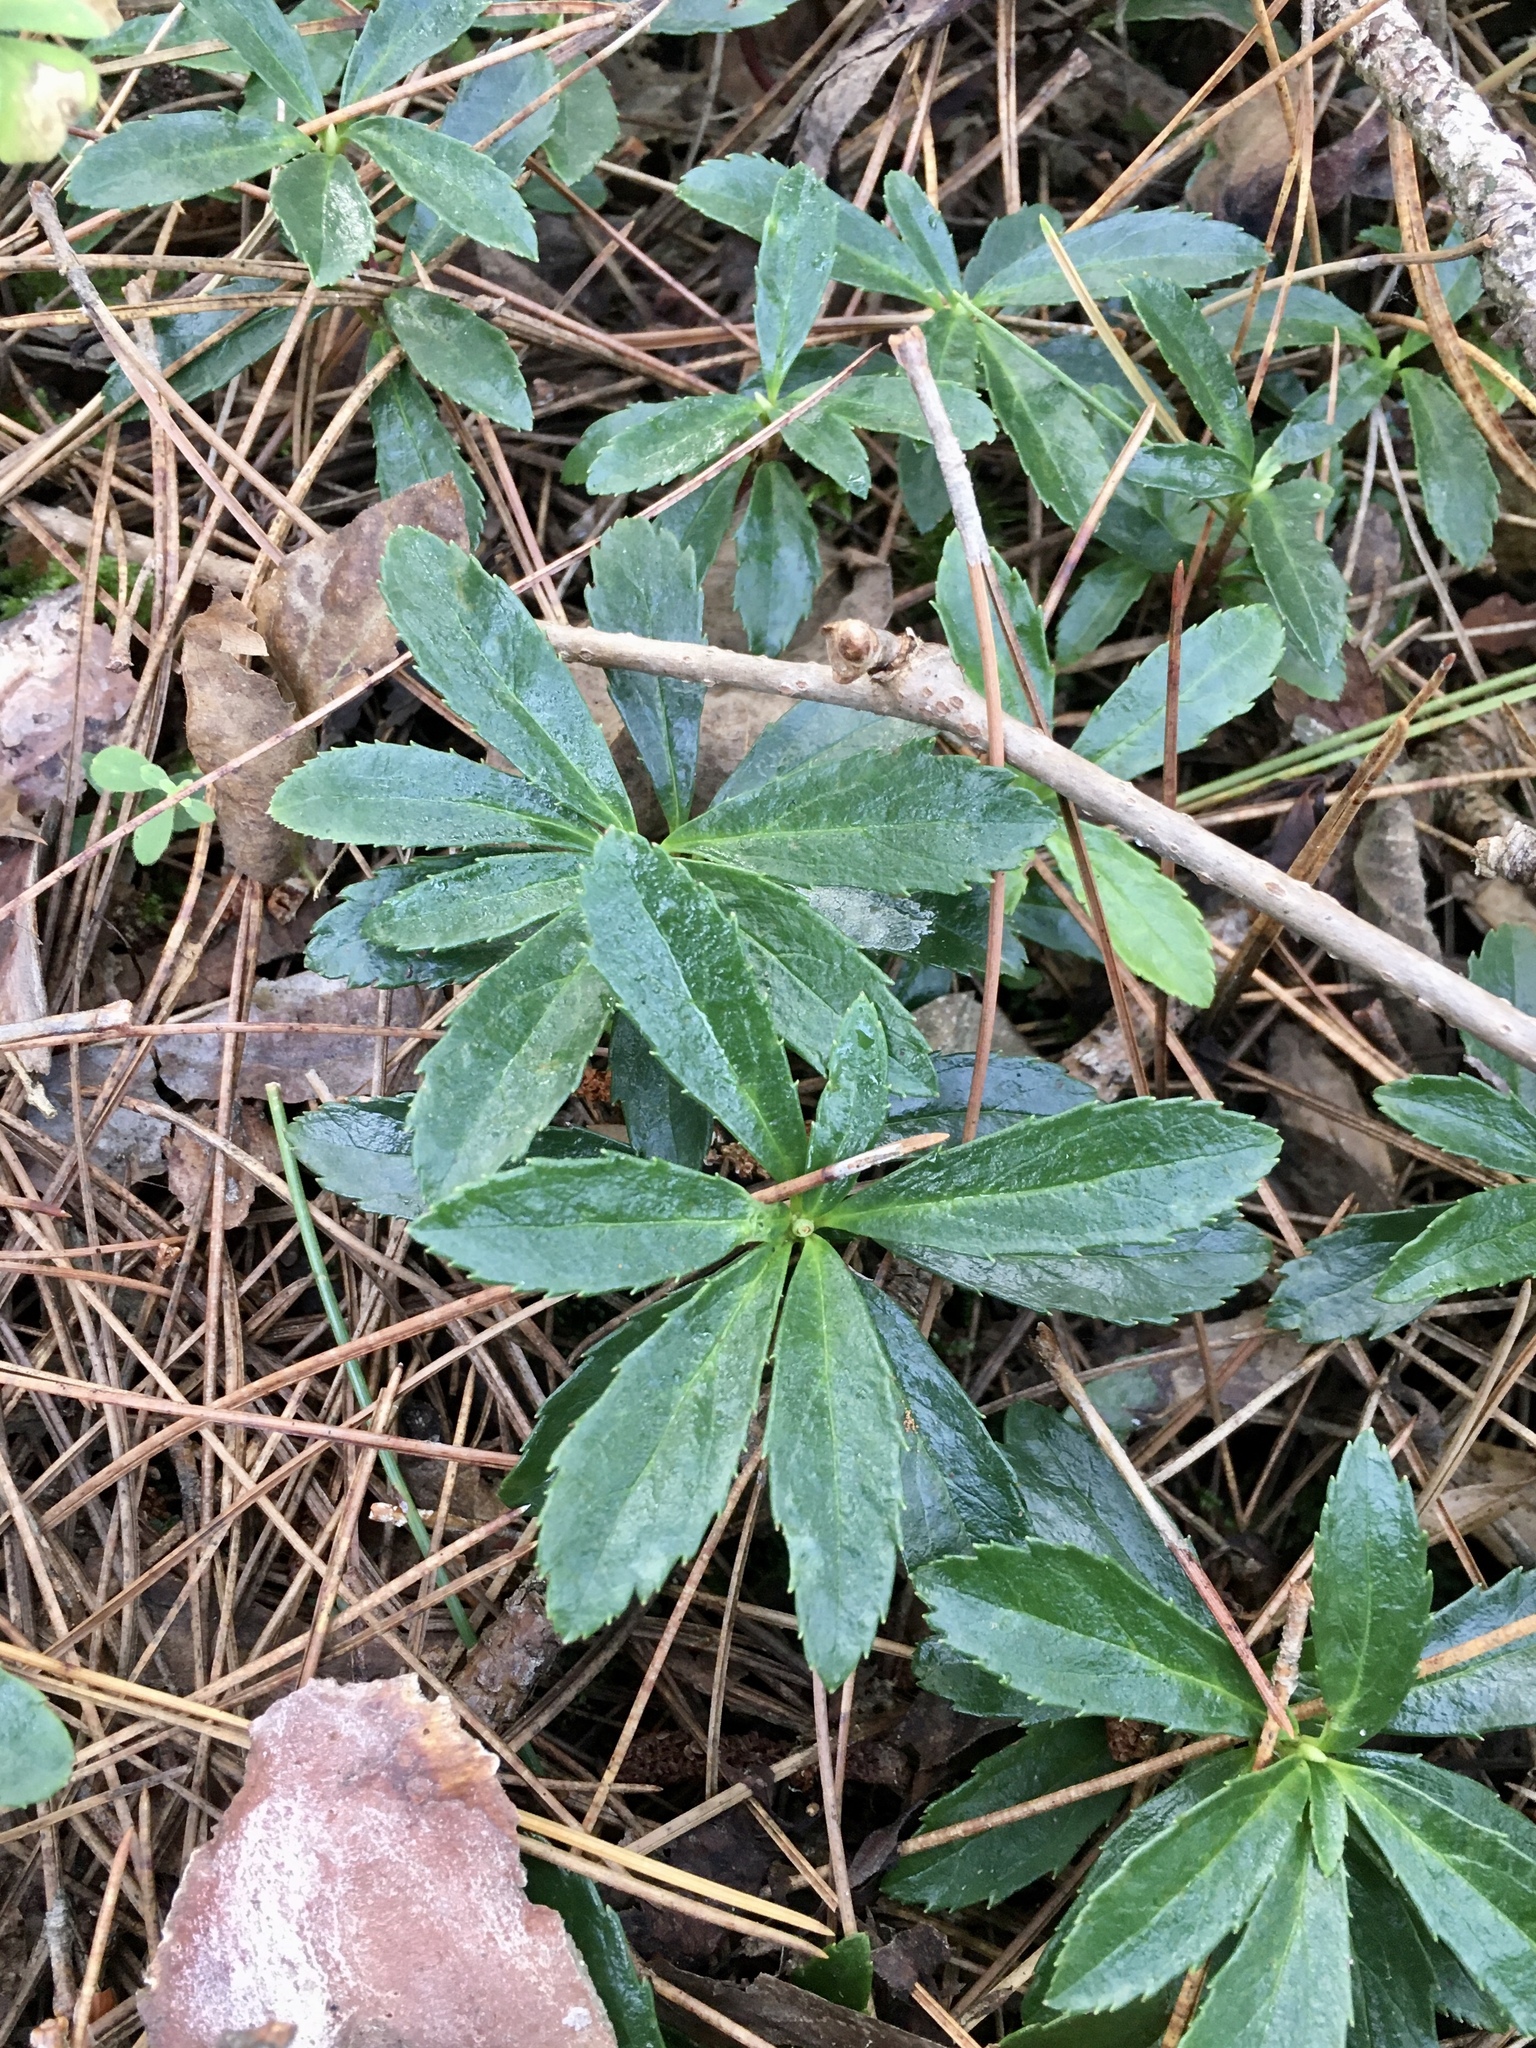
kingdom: Plantae
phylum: Tracheophyta
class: Magnoliopsida
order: Ericales
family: Ericaceae
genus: Chimaphila
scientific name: Chimaphila umbellata
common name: Pipsissewa
